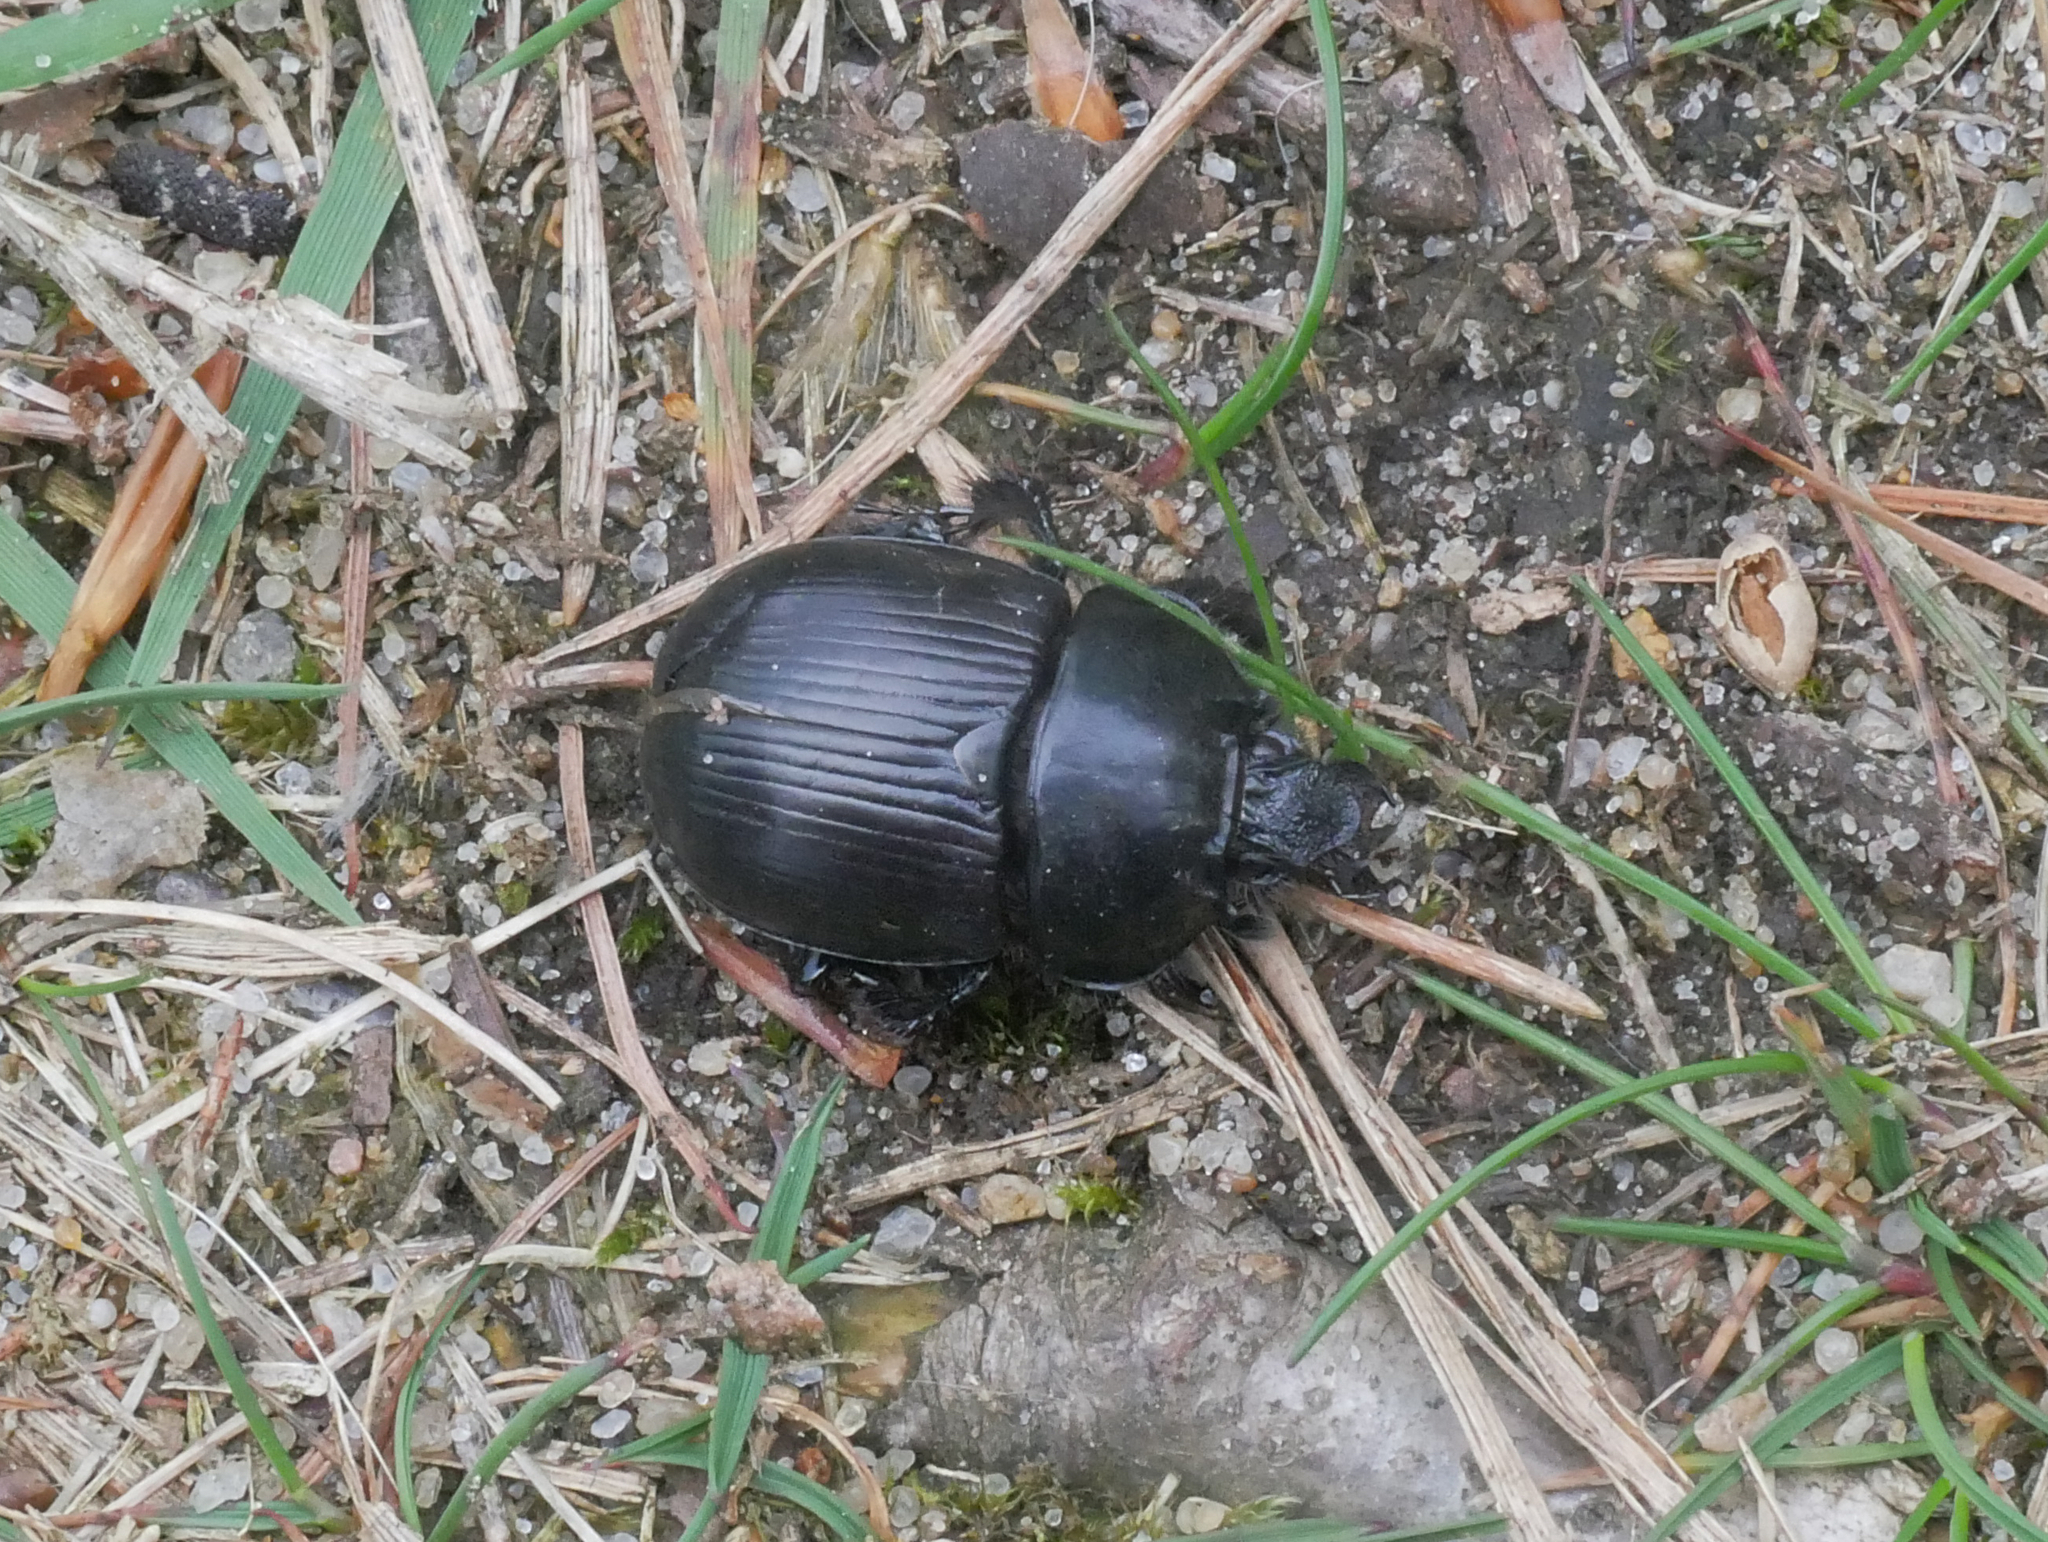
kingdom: Animalia
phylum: Arthropoda
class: Insecta
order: Coleoptera
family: Geotrupidae
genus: Typhaeus
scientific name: Typhaeus typhoeus
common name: Minotaur beetle
